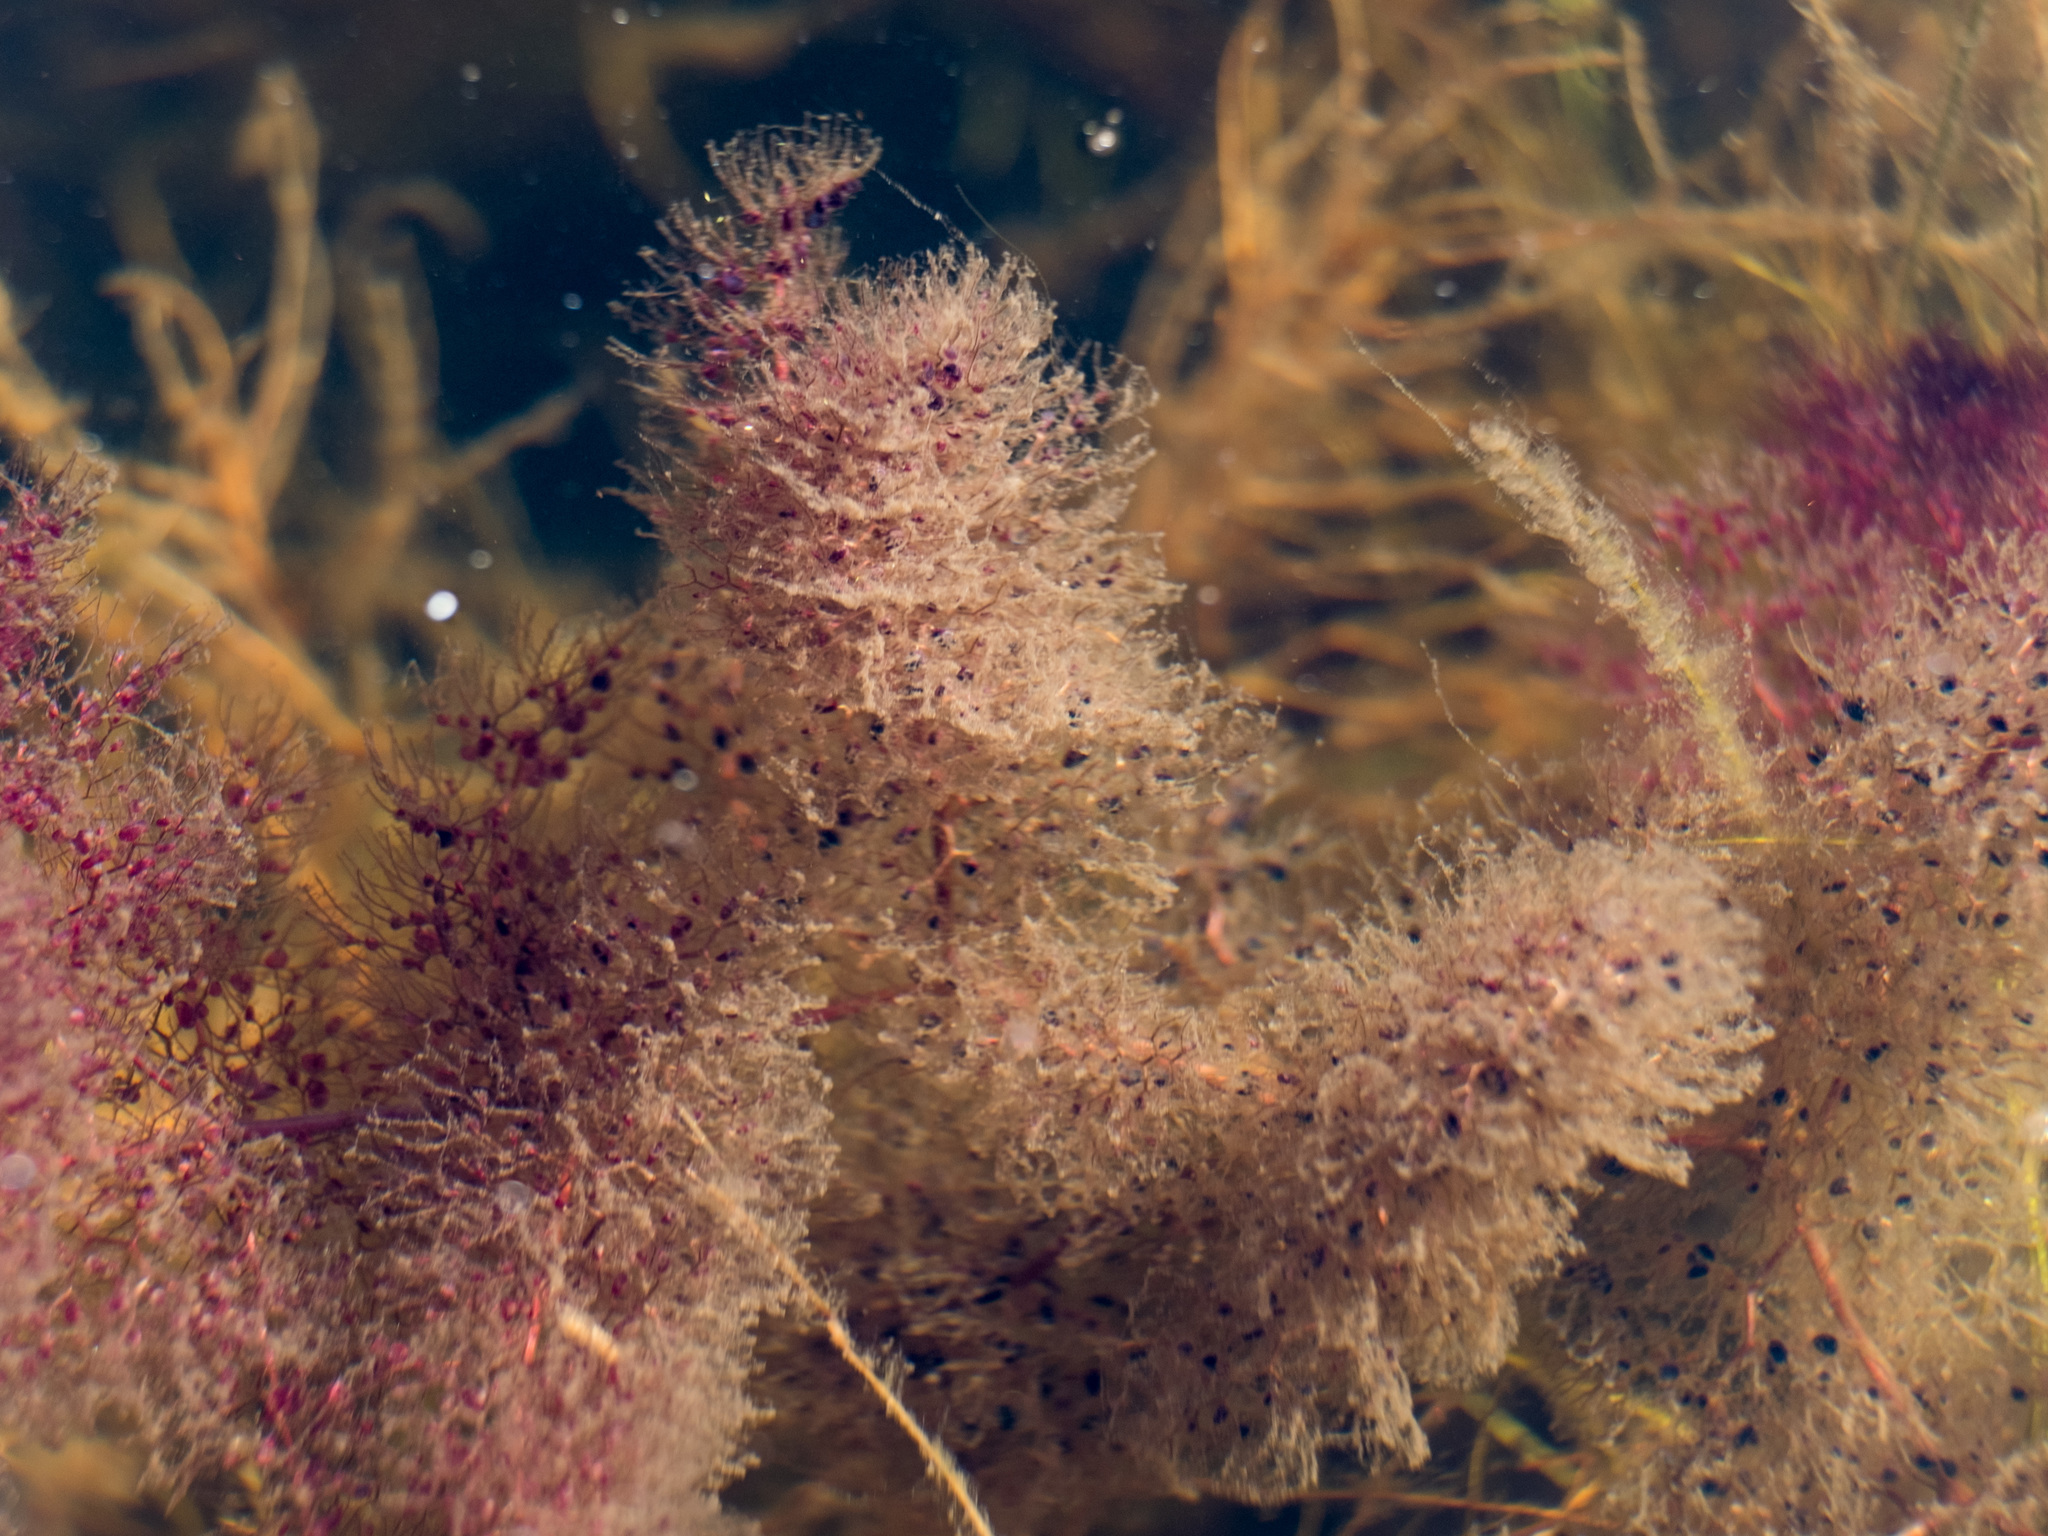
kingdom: Plantae
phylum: Tracheophyta
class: Magnoliopsida
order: Lamiales
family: Lentibulariaceae
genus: Utricularia
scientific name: Utricularia macrorhiza
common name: Common bladderwort
